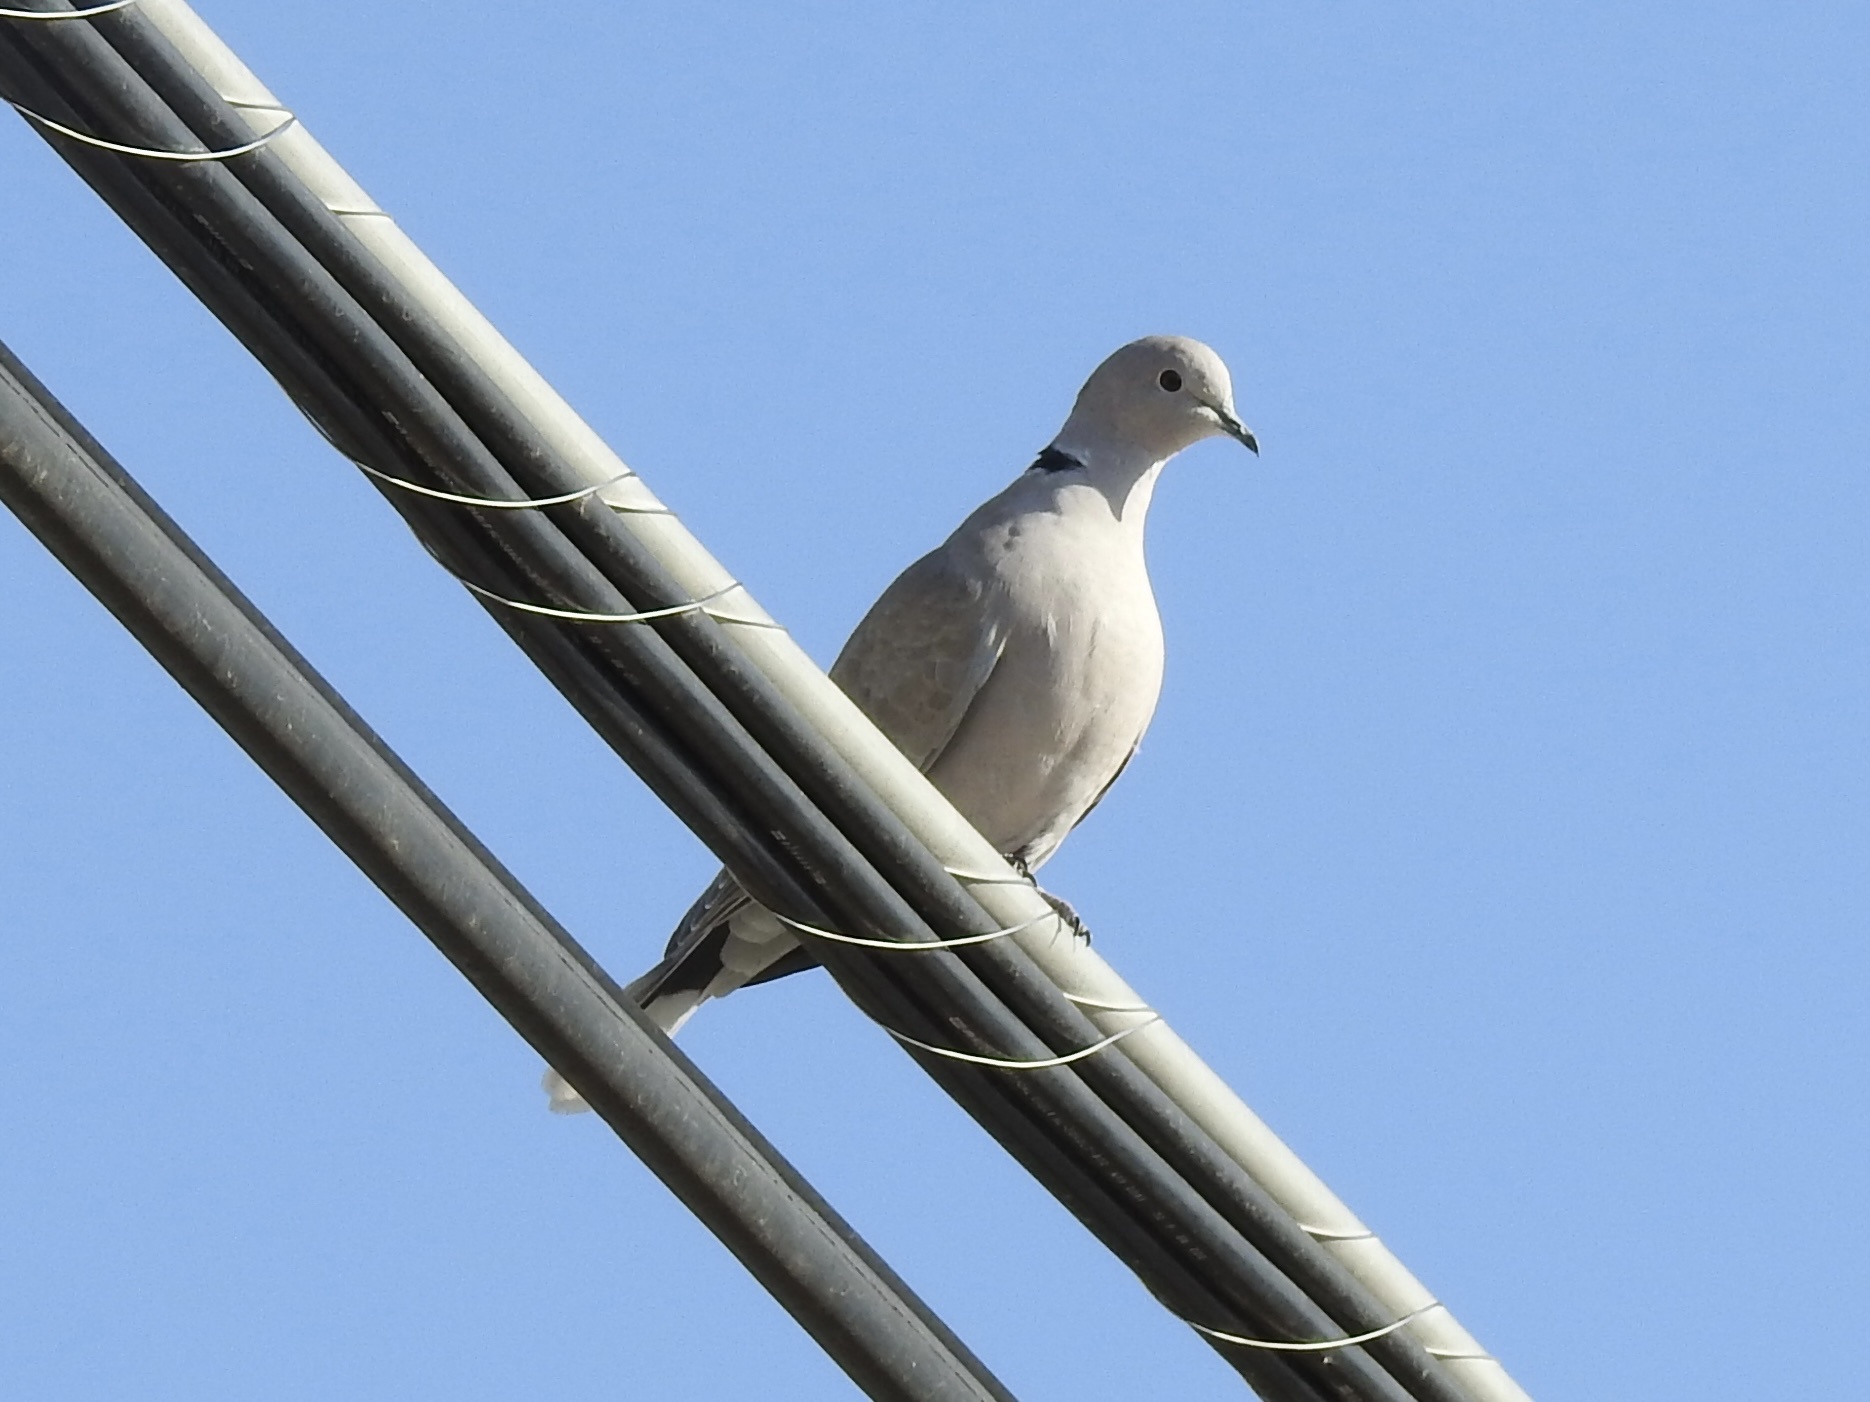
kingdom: Animalia
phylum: Chordata
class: Aves
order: Columbiformes
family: Columbidae
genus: Streptopelia
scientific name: Streptopelia decaocto
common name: Eurasian collared dove
